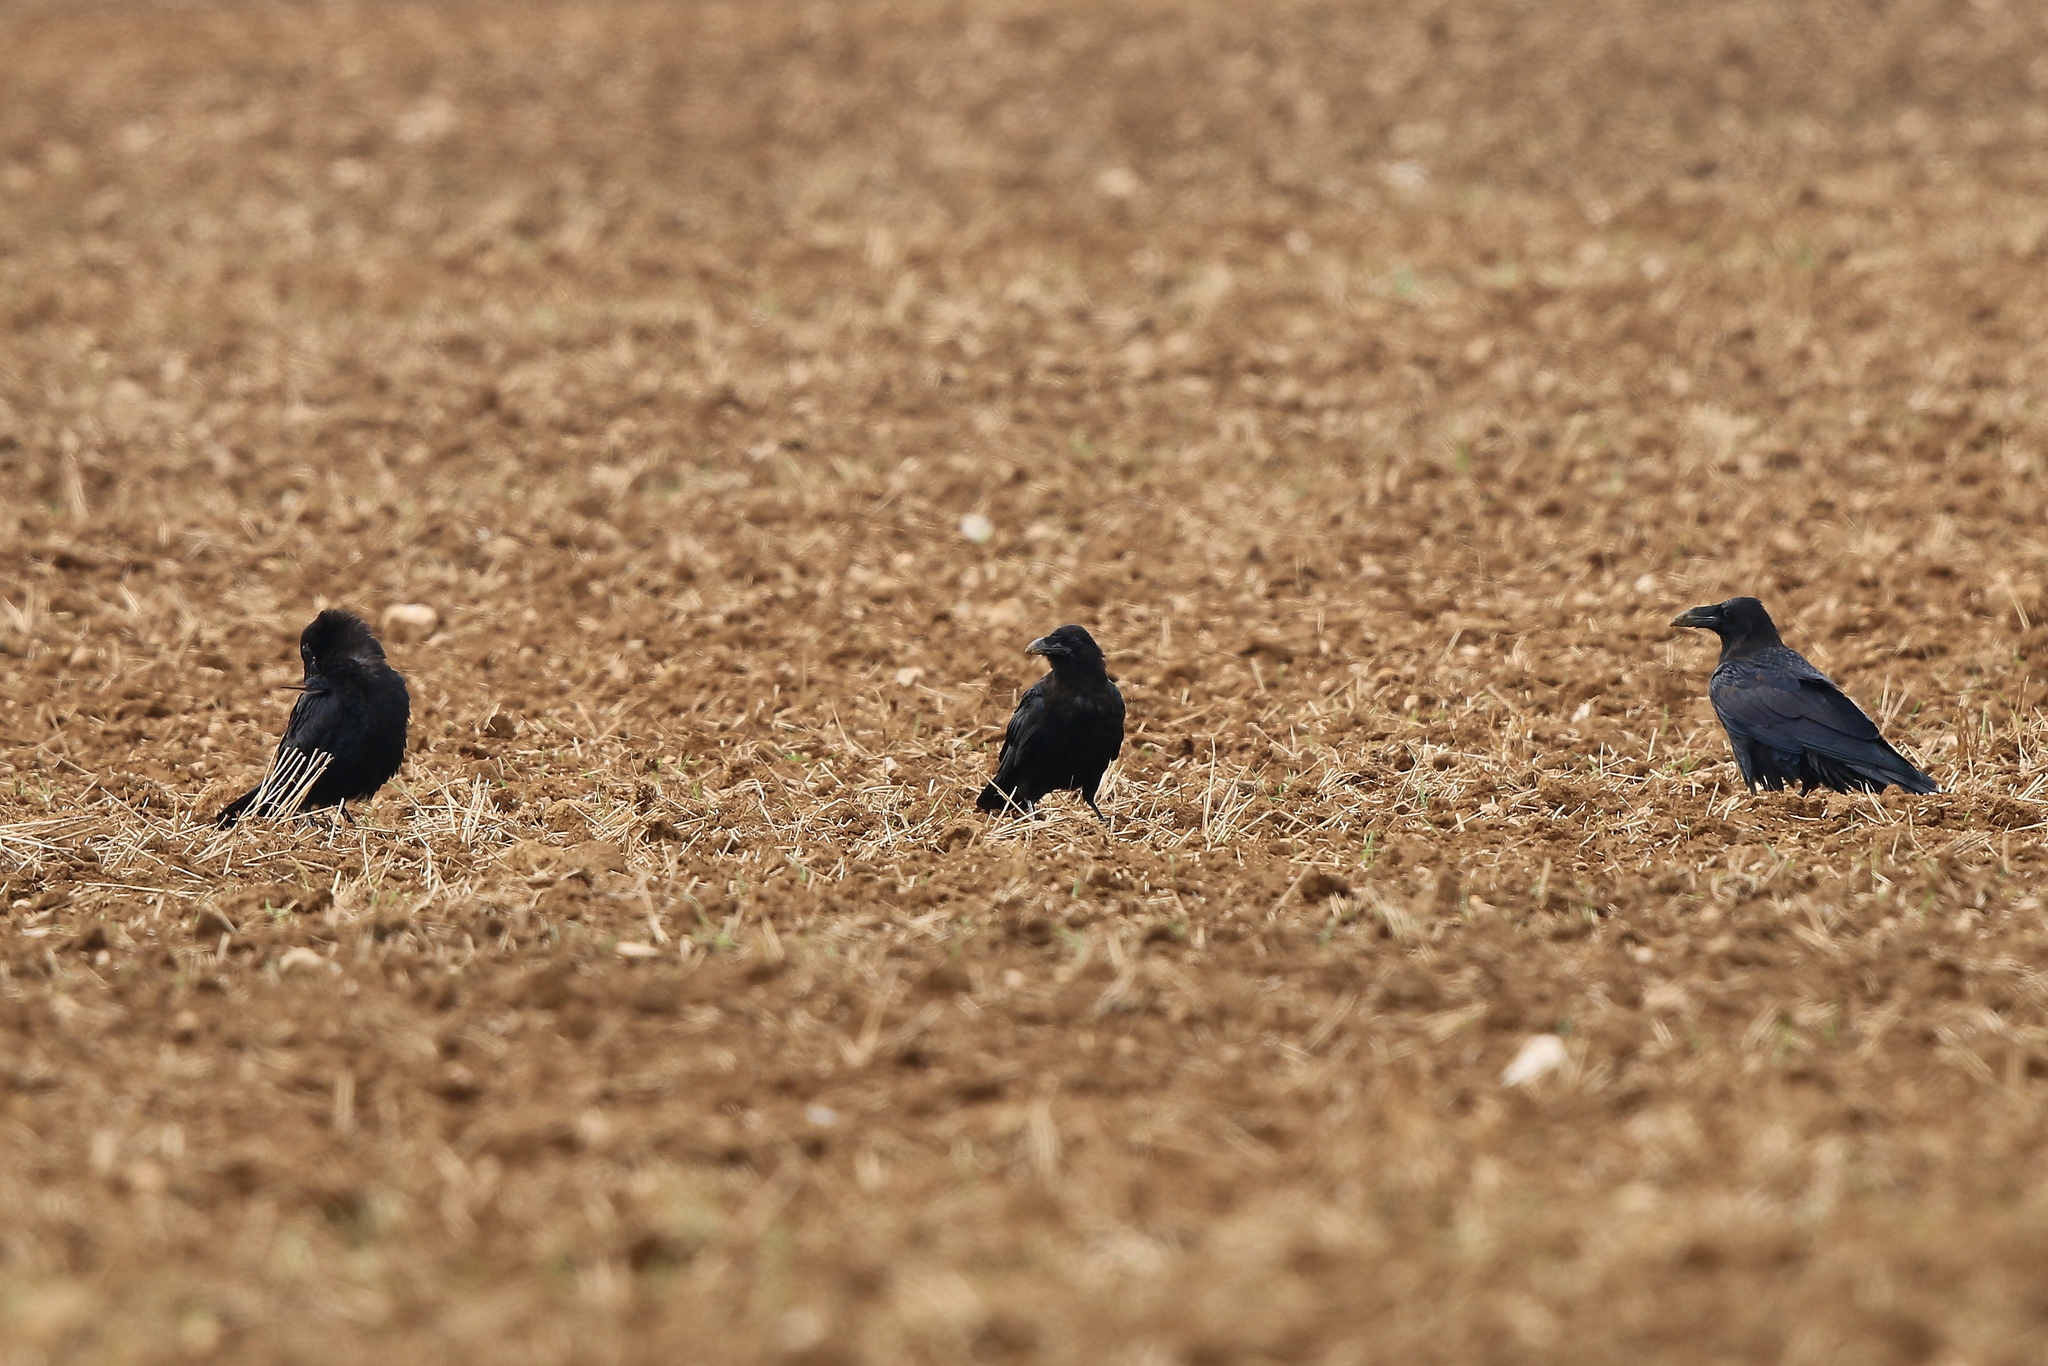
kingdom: Animalia
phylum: Chordata
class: Aves
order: Passeriformes
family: Corvidae
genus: Corvus
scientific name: Corvus corax
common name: Common raven
